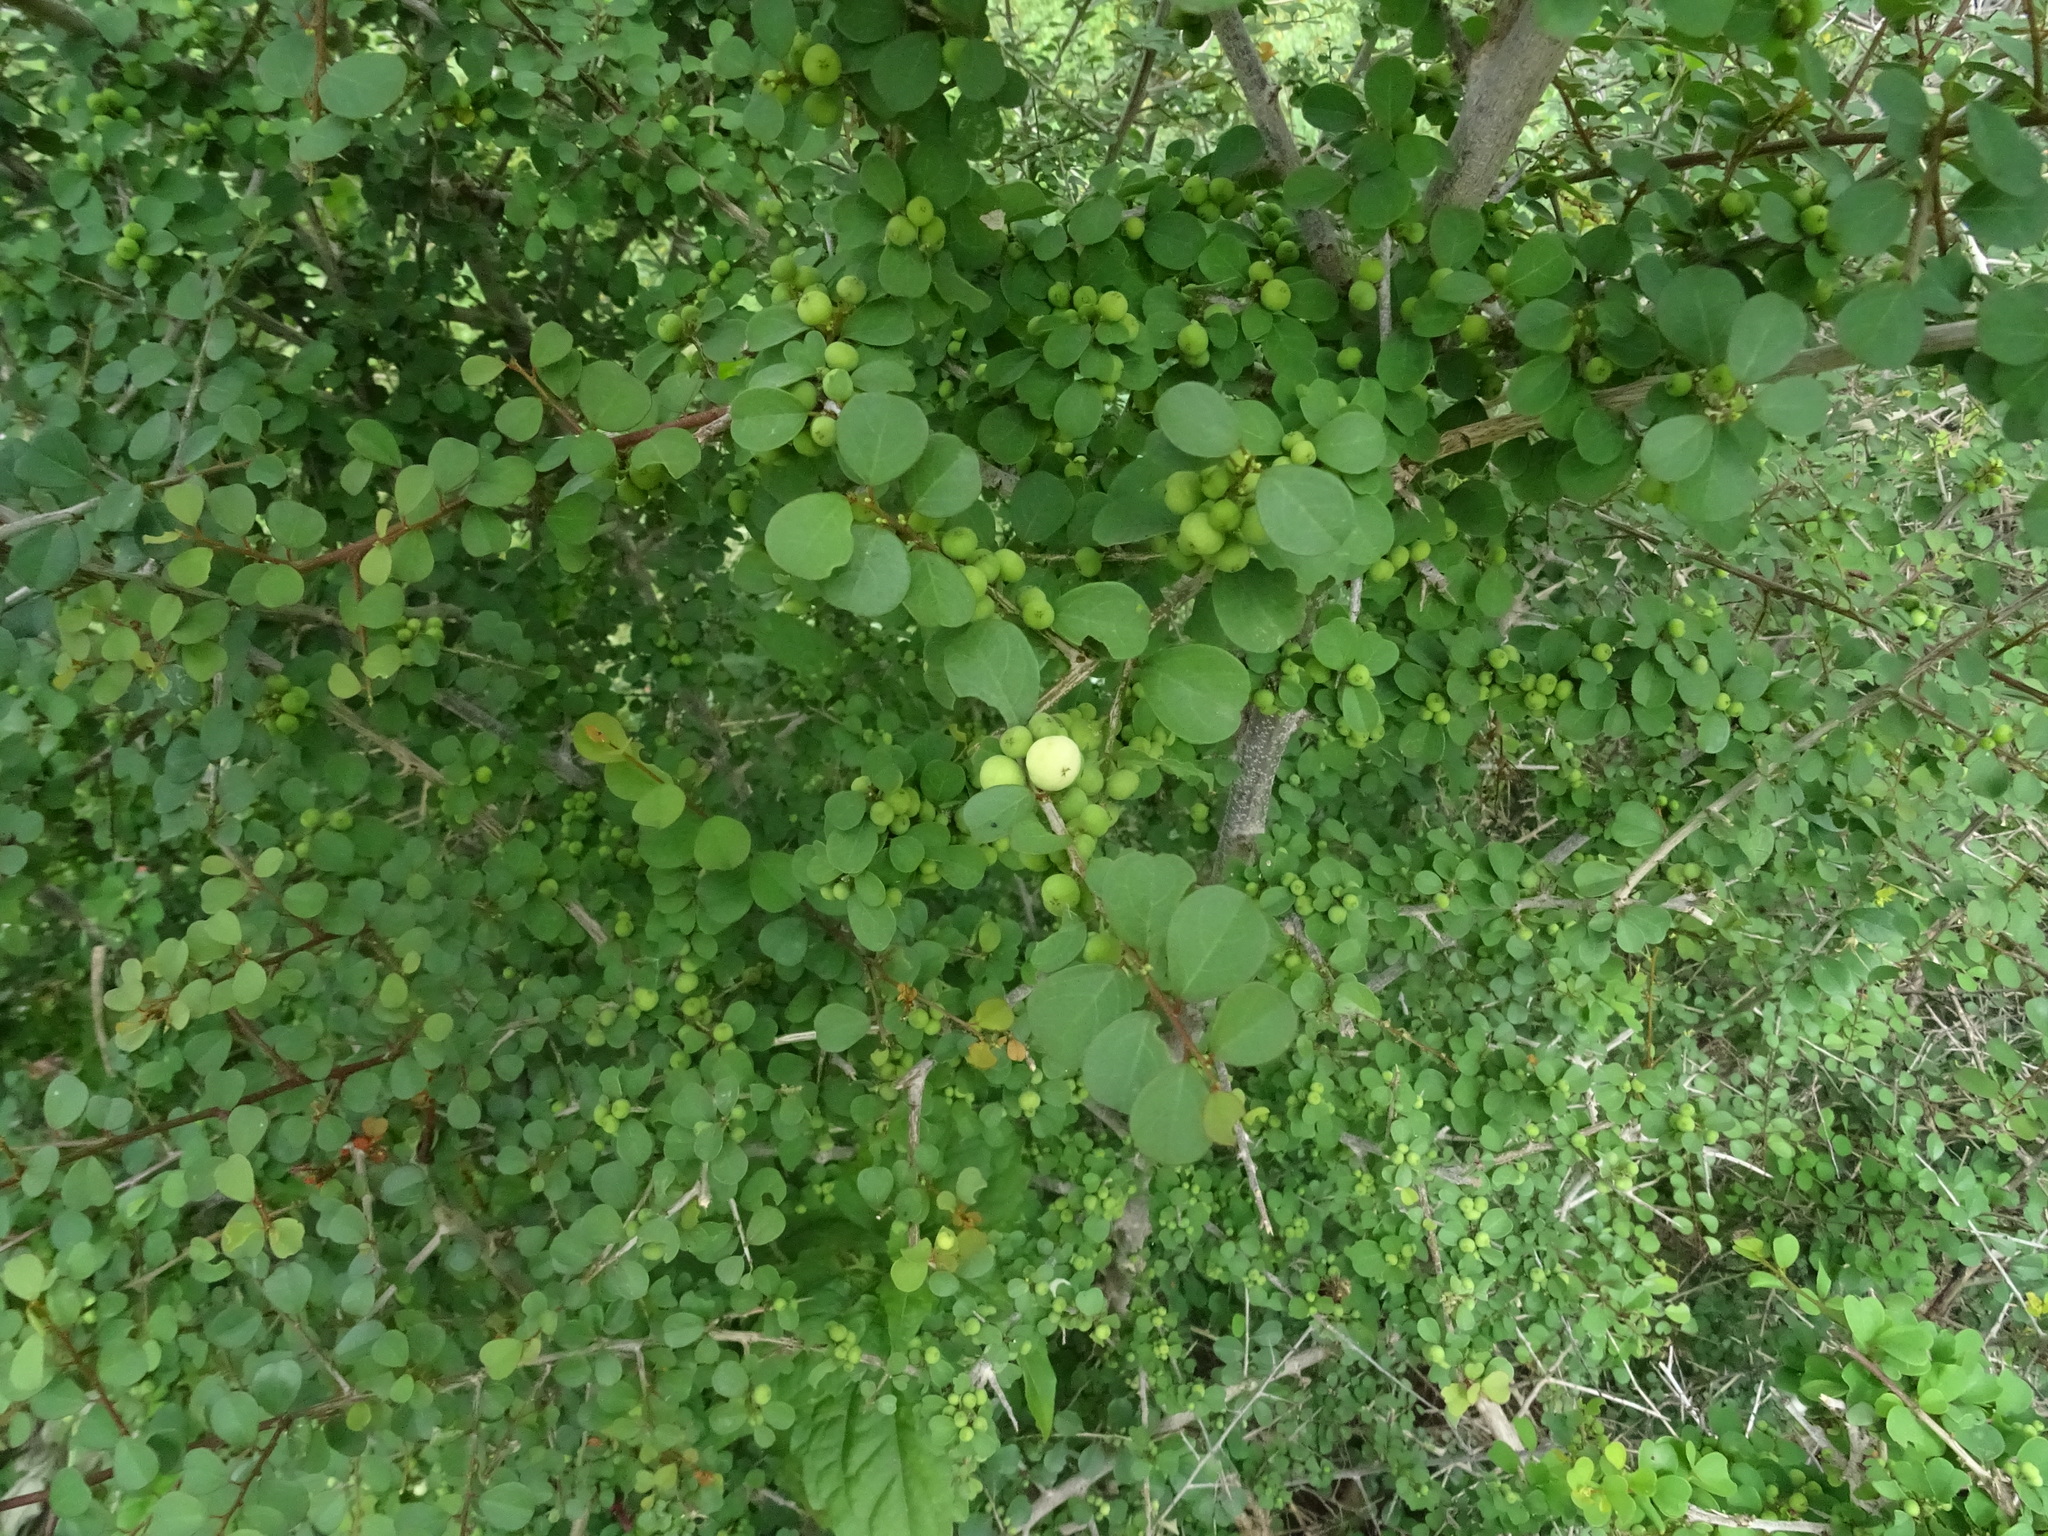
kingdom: Plantae
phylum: Tracheophyta
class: Magnoliopsida
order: Malpighiales
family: Phyllanthaceae
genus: Flueggea
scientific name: Flueggea leucopyrus
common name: Bushweed
